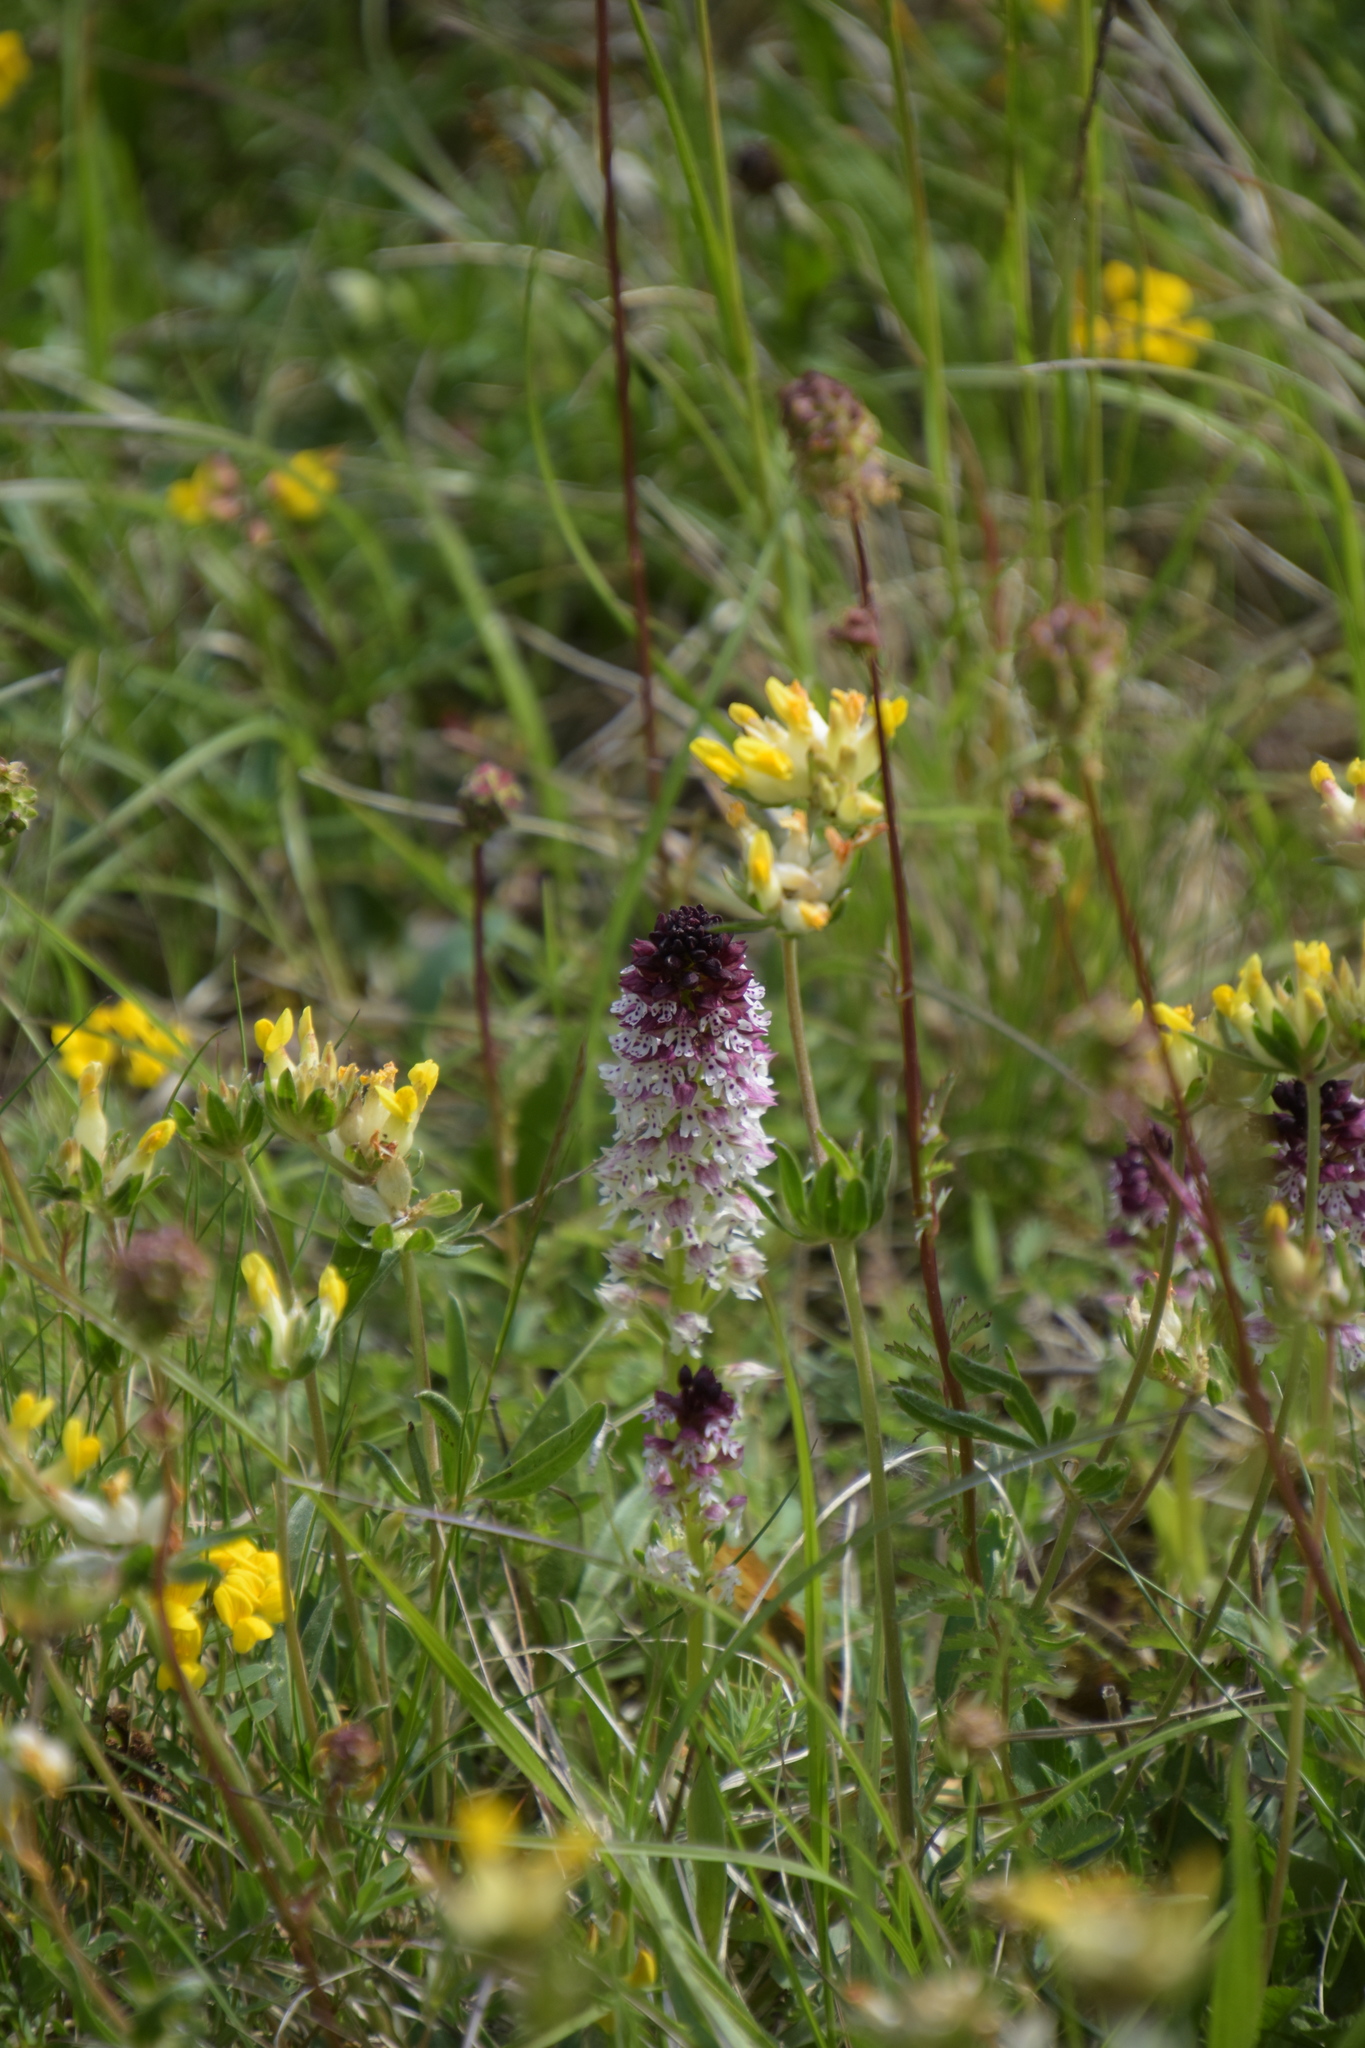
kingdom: Plantae
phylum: Tracheophyta
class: Liliopsida
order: Asparagales
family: Orchidaceae
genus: Neotinea
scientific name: Neotinea ustulata
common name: Burnt orchid
